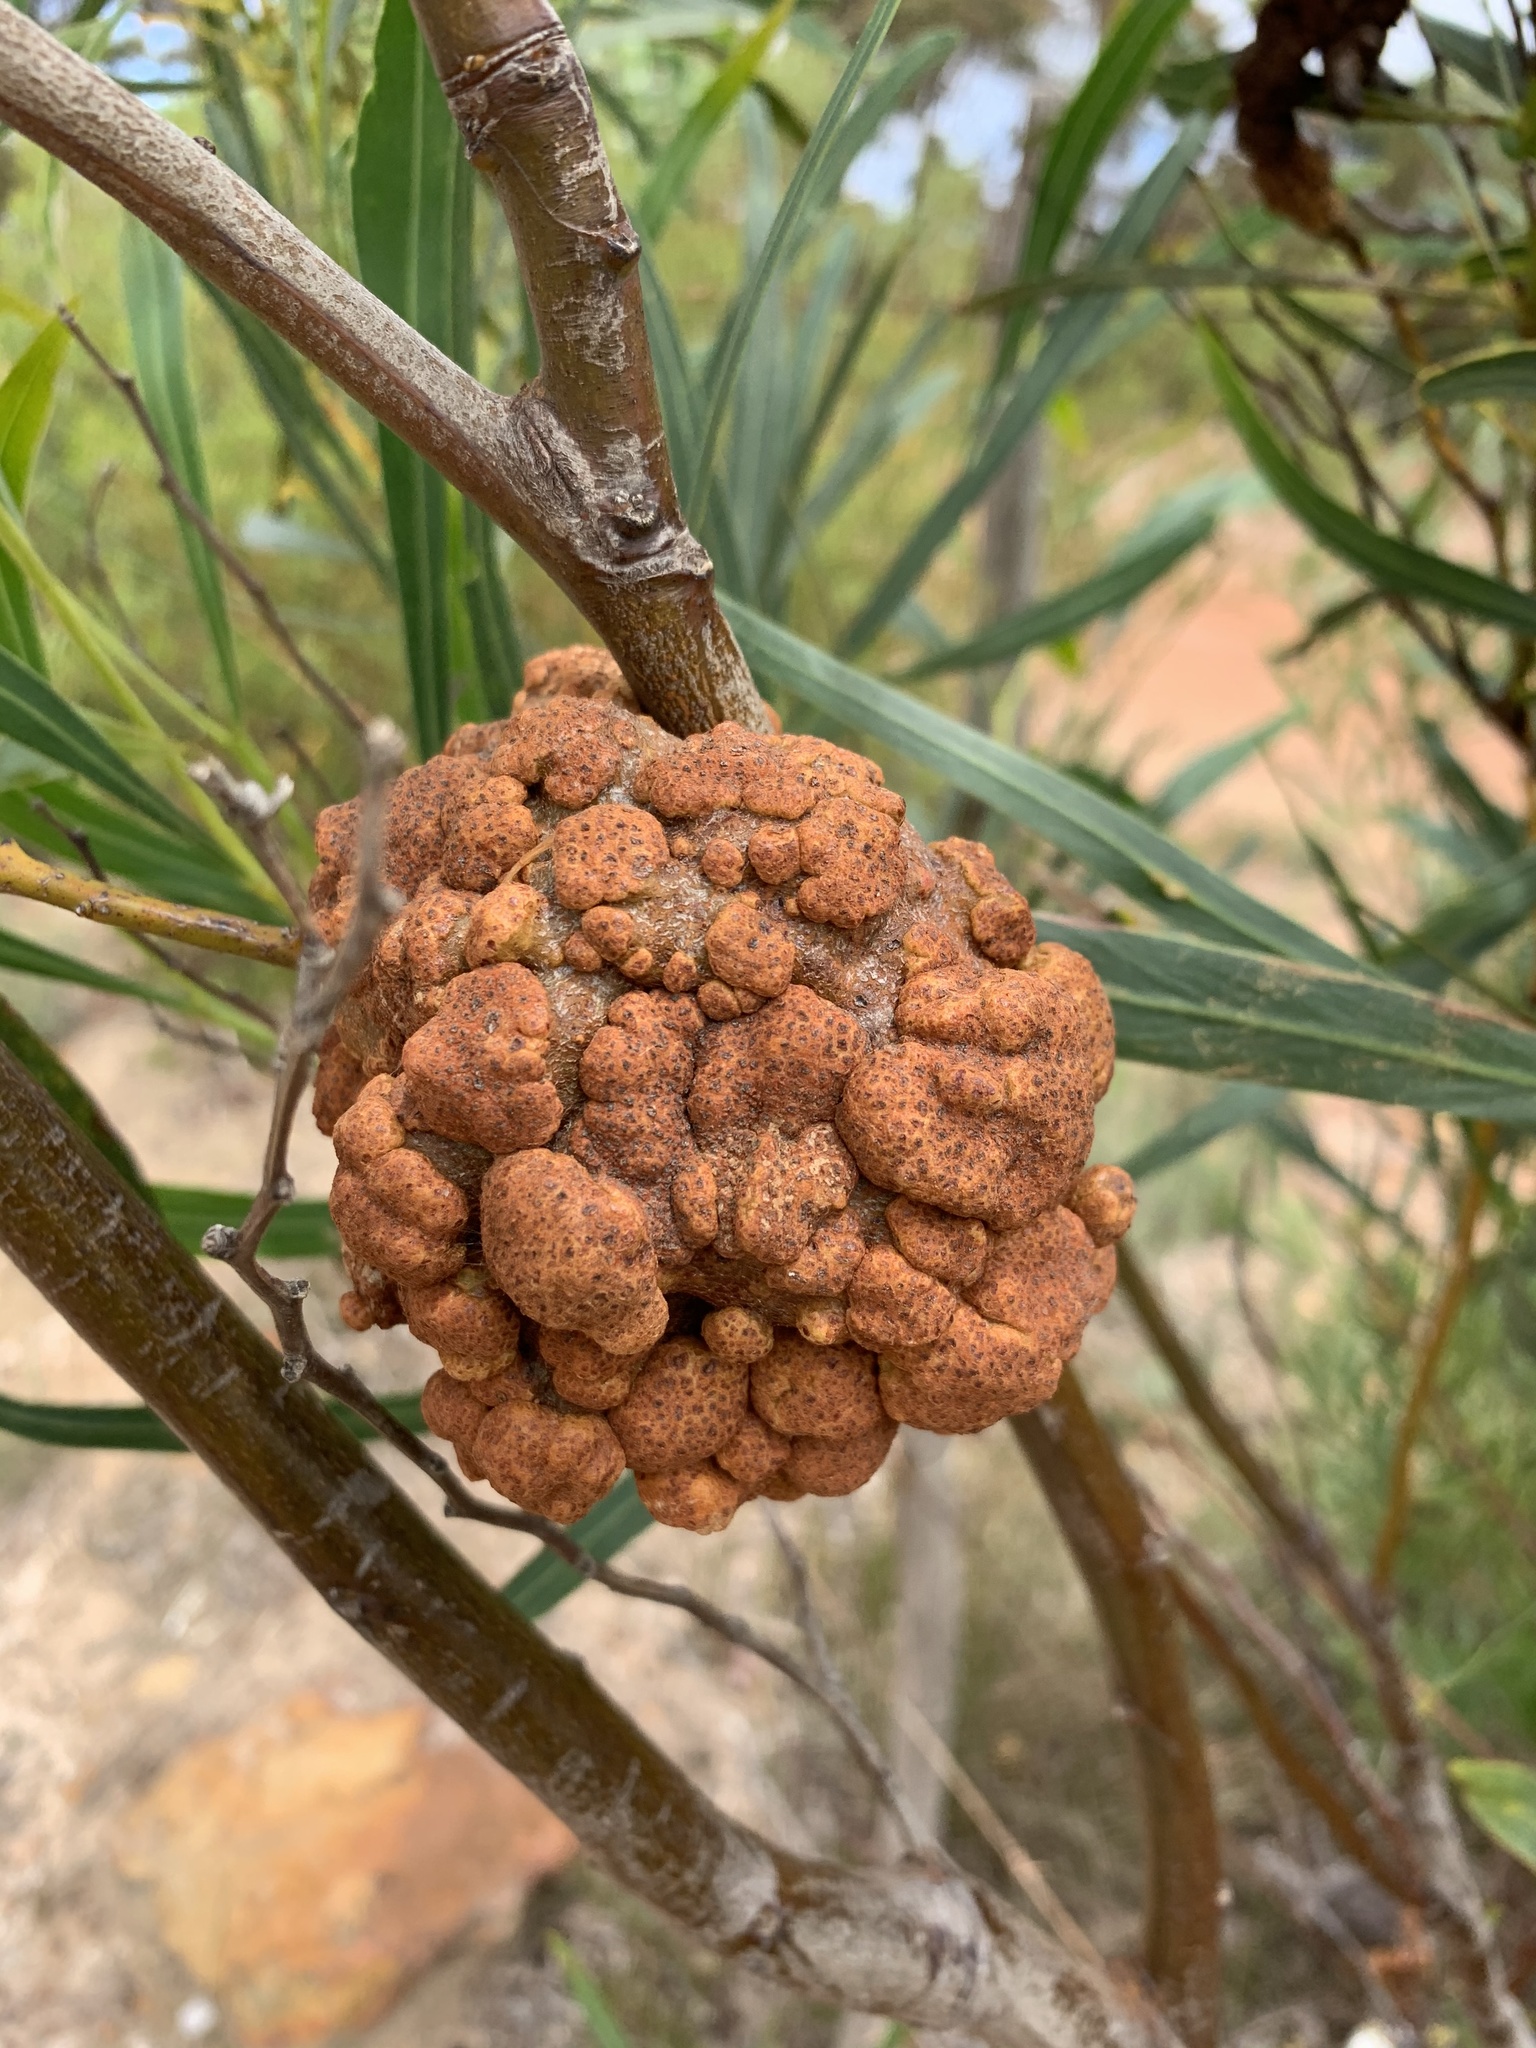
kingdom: Fungi
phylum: Basidiomycota
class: Pucciniomycetes
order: Pucciniales
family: Uromycladiaceae
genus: Uromycladium
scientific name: Uromycladium morrisii
